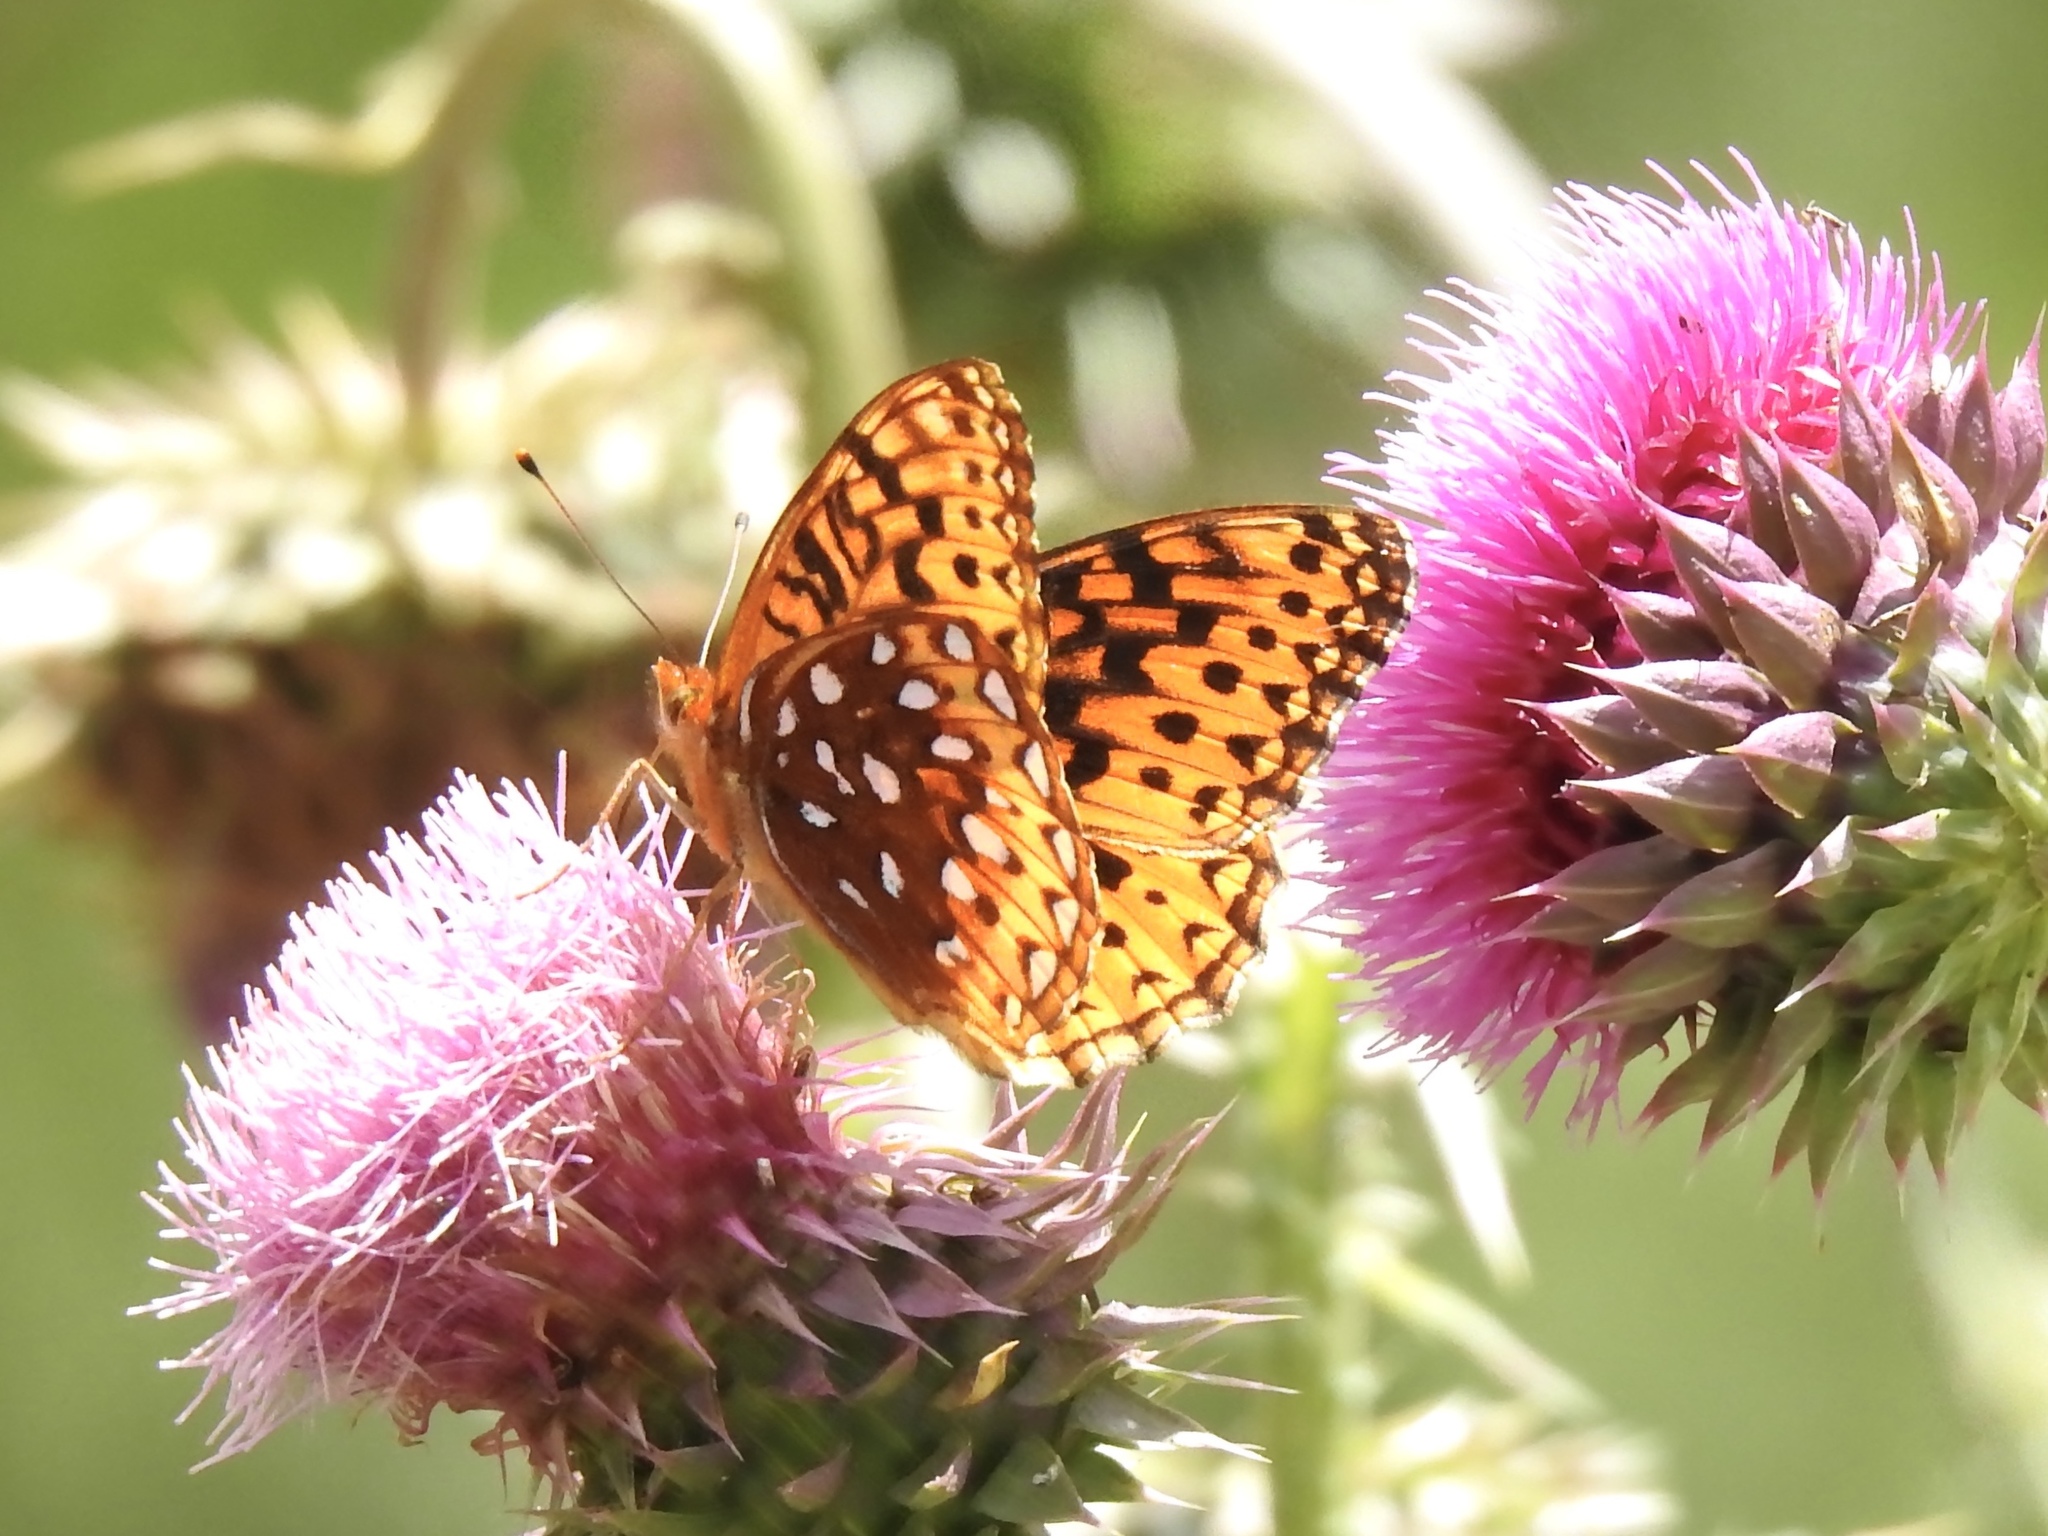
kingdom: Animalia
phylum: Arthropoda
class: Insecta
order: Lepidoptera
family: Nymphalidae
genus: Speyeria
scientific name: Speyeria atlantis
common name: Atlantis fritillary
